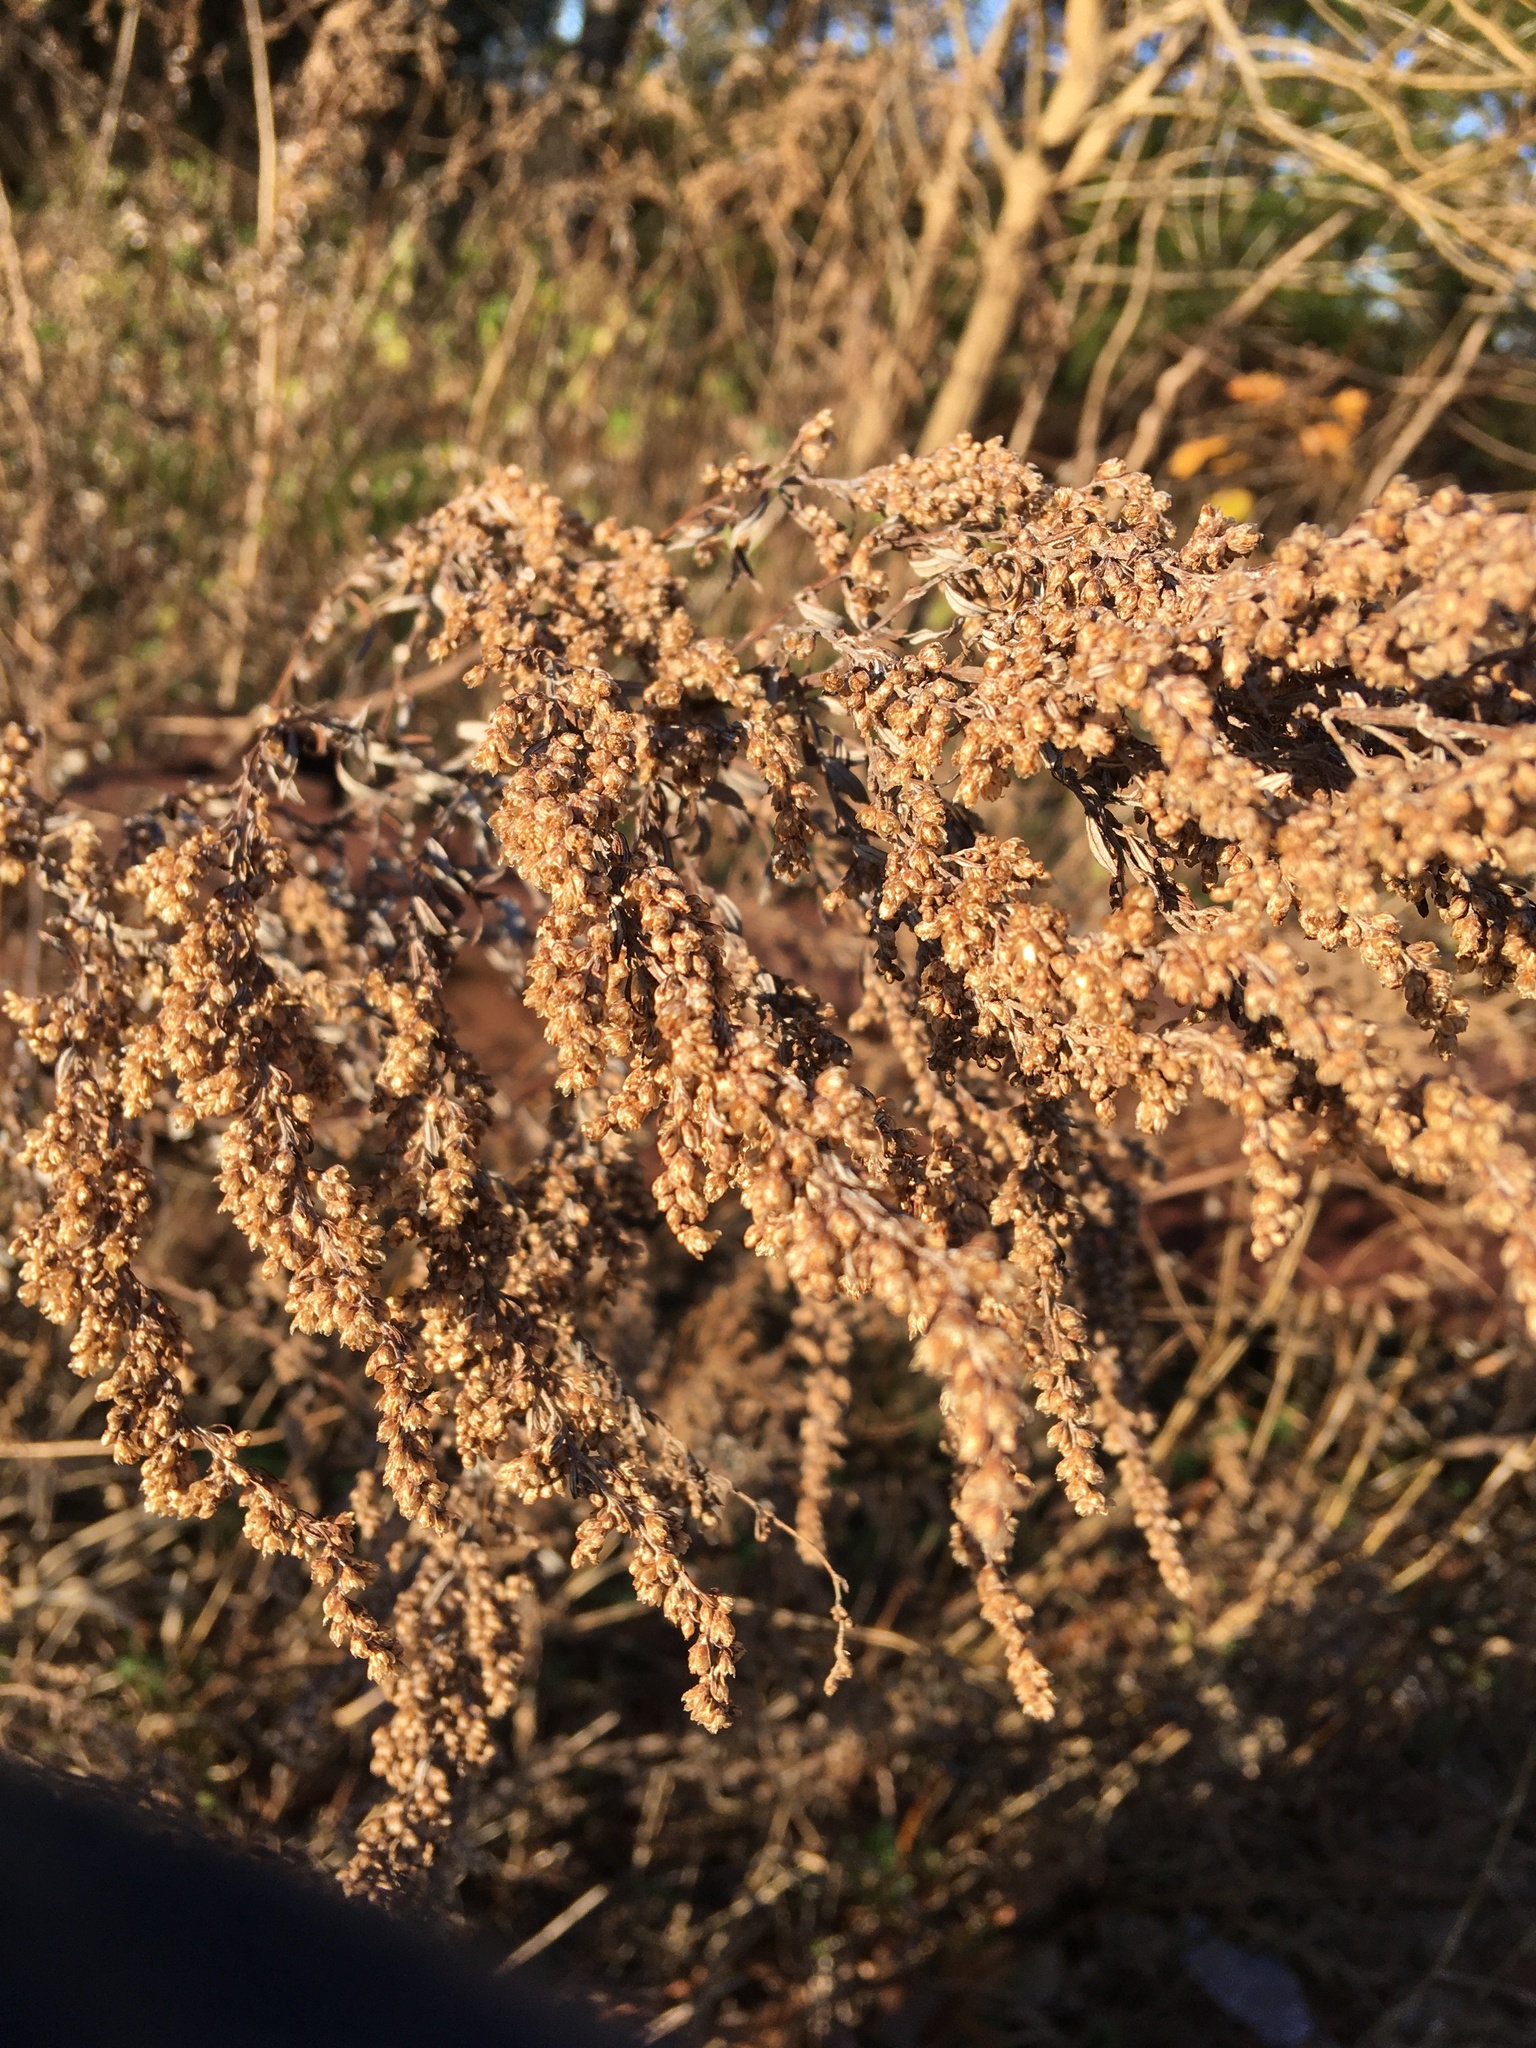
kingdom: Plantae
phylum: Tracheophyta
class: Magnoliopsida
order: Asterales
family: Asteraceae
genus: Artemisia
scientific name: Artemisia vulgaris
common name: Mugwort
